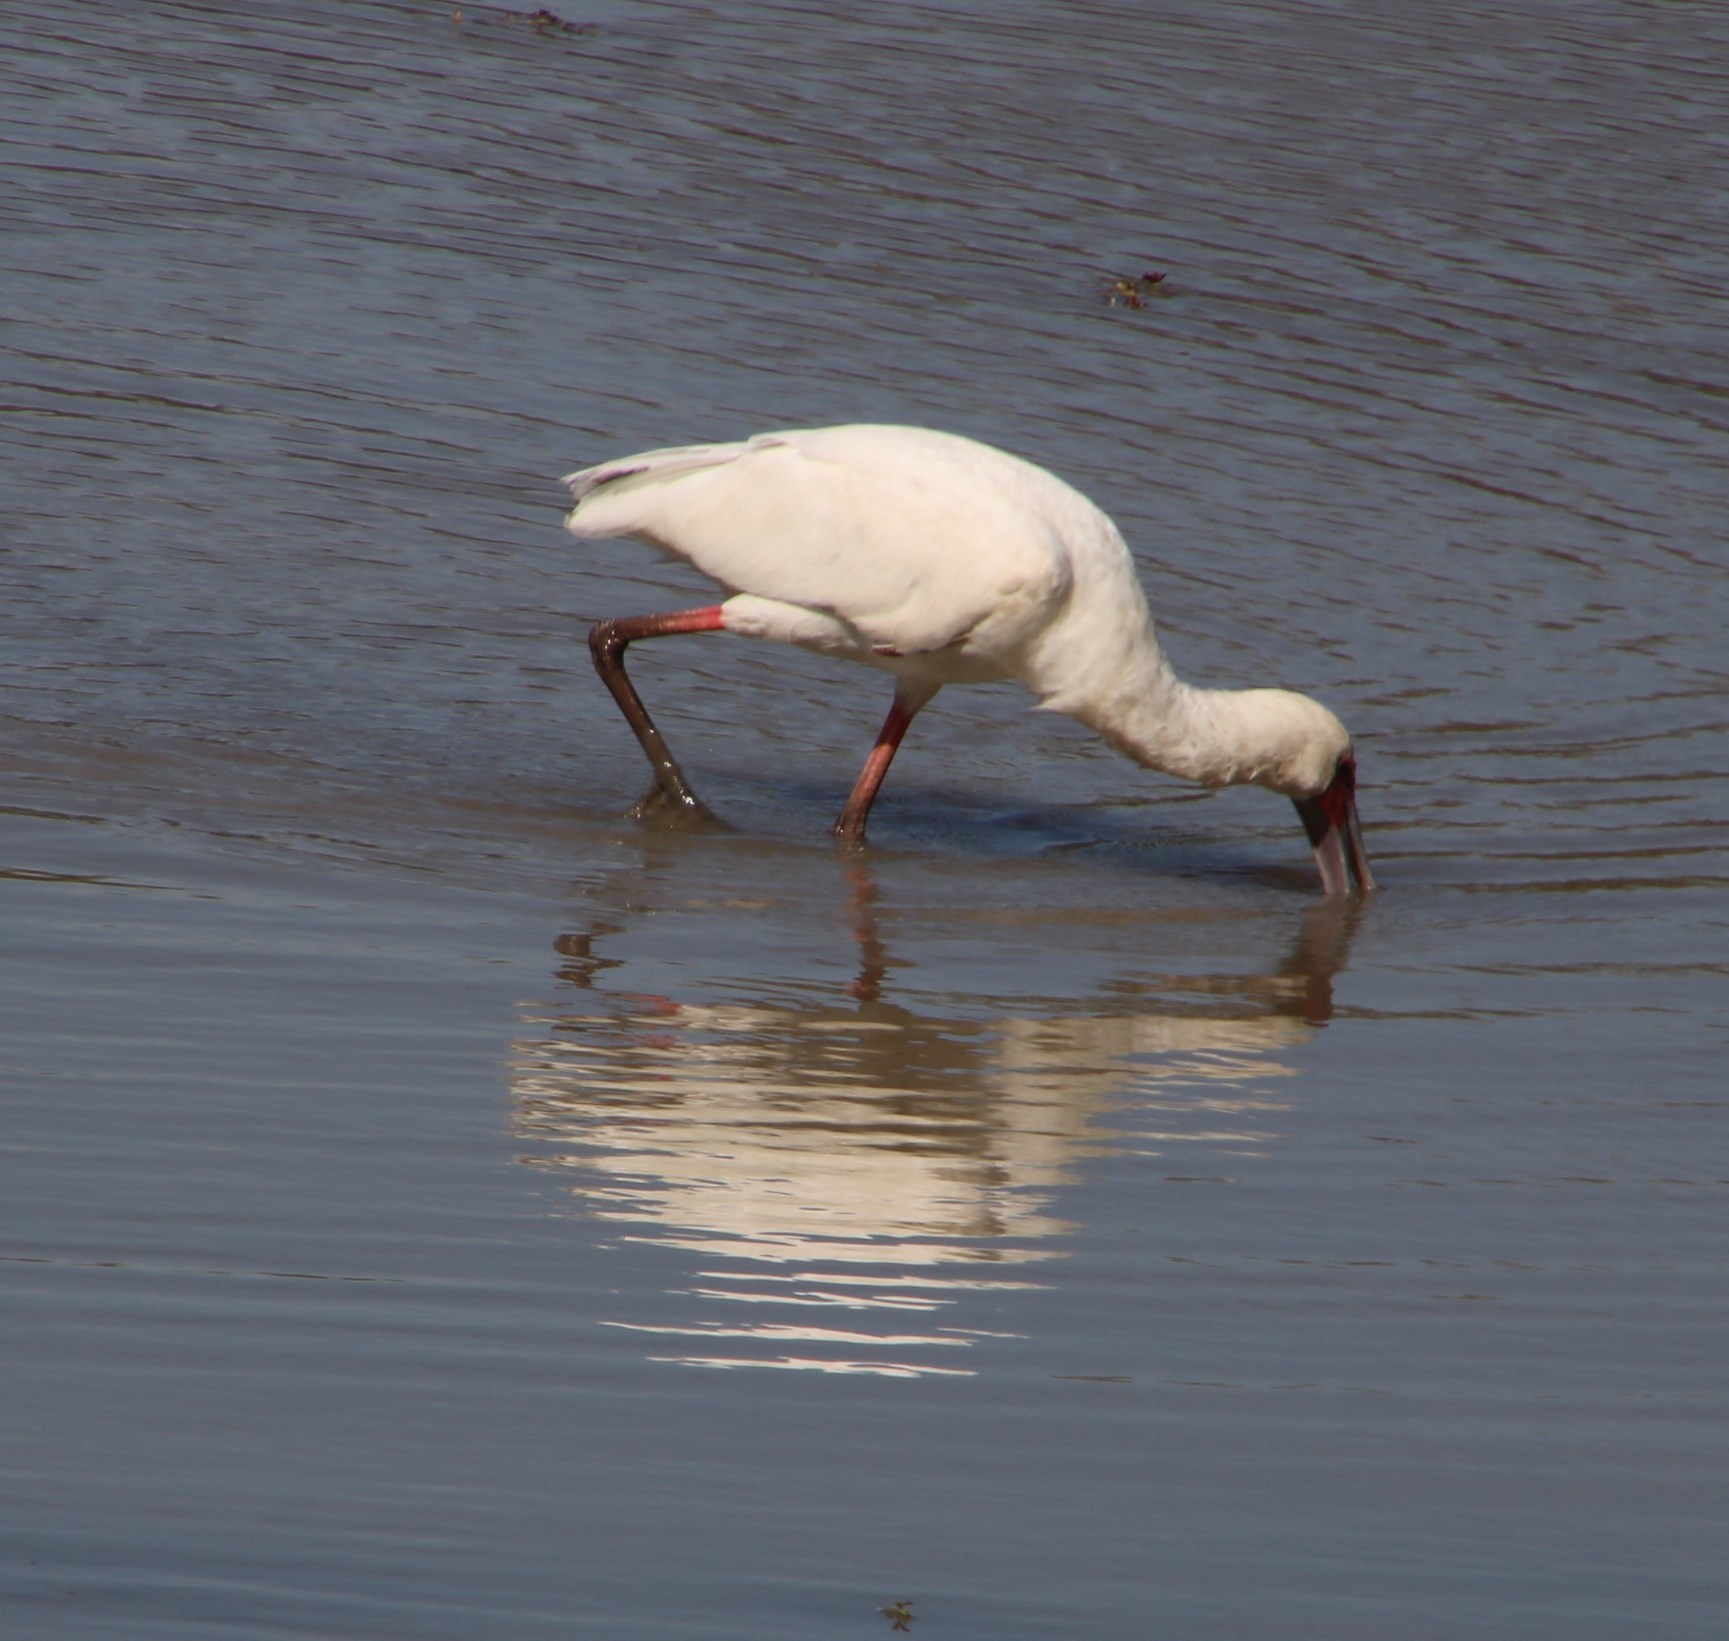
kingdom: Animalia
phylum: Chordata
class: Aves
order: Pelecaniformes
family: Threskiornithidae
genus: Platalea
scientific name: Platalea alba
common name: African spoonbill
